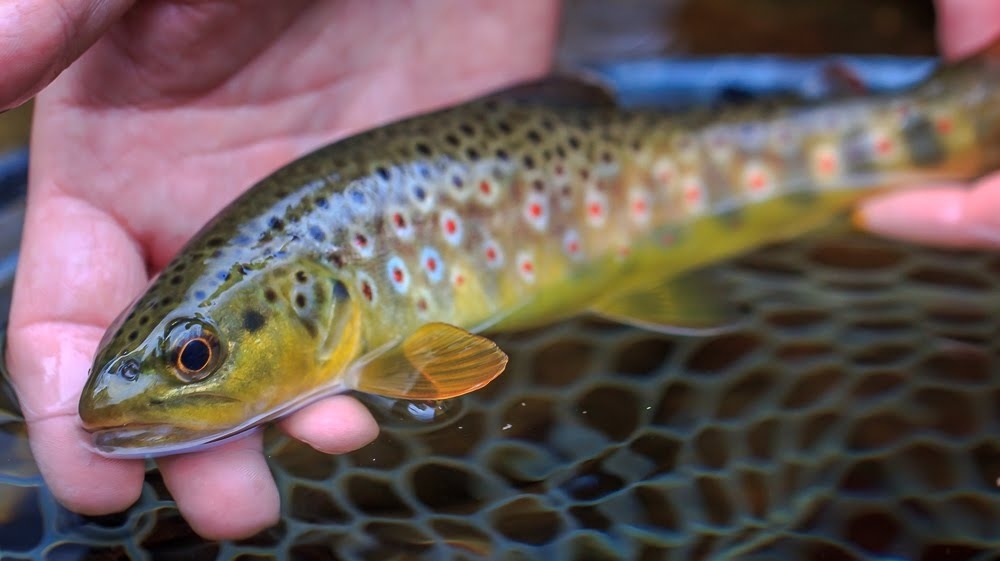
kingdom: Animalia
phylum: Chordata
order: Salmoniformes
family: Salmonidae
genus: Salmo
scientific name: Salmo trutta
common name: Brown trout
